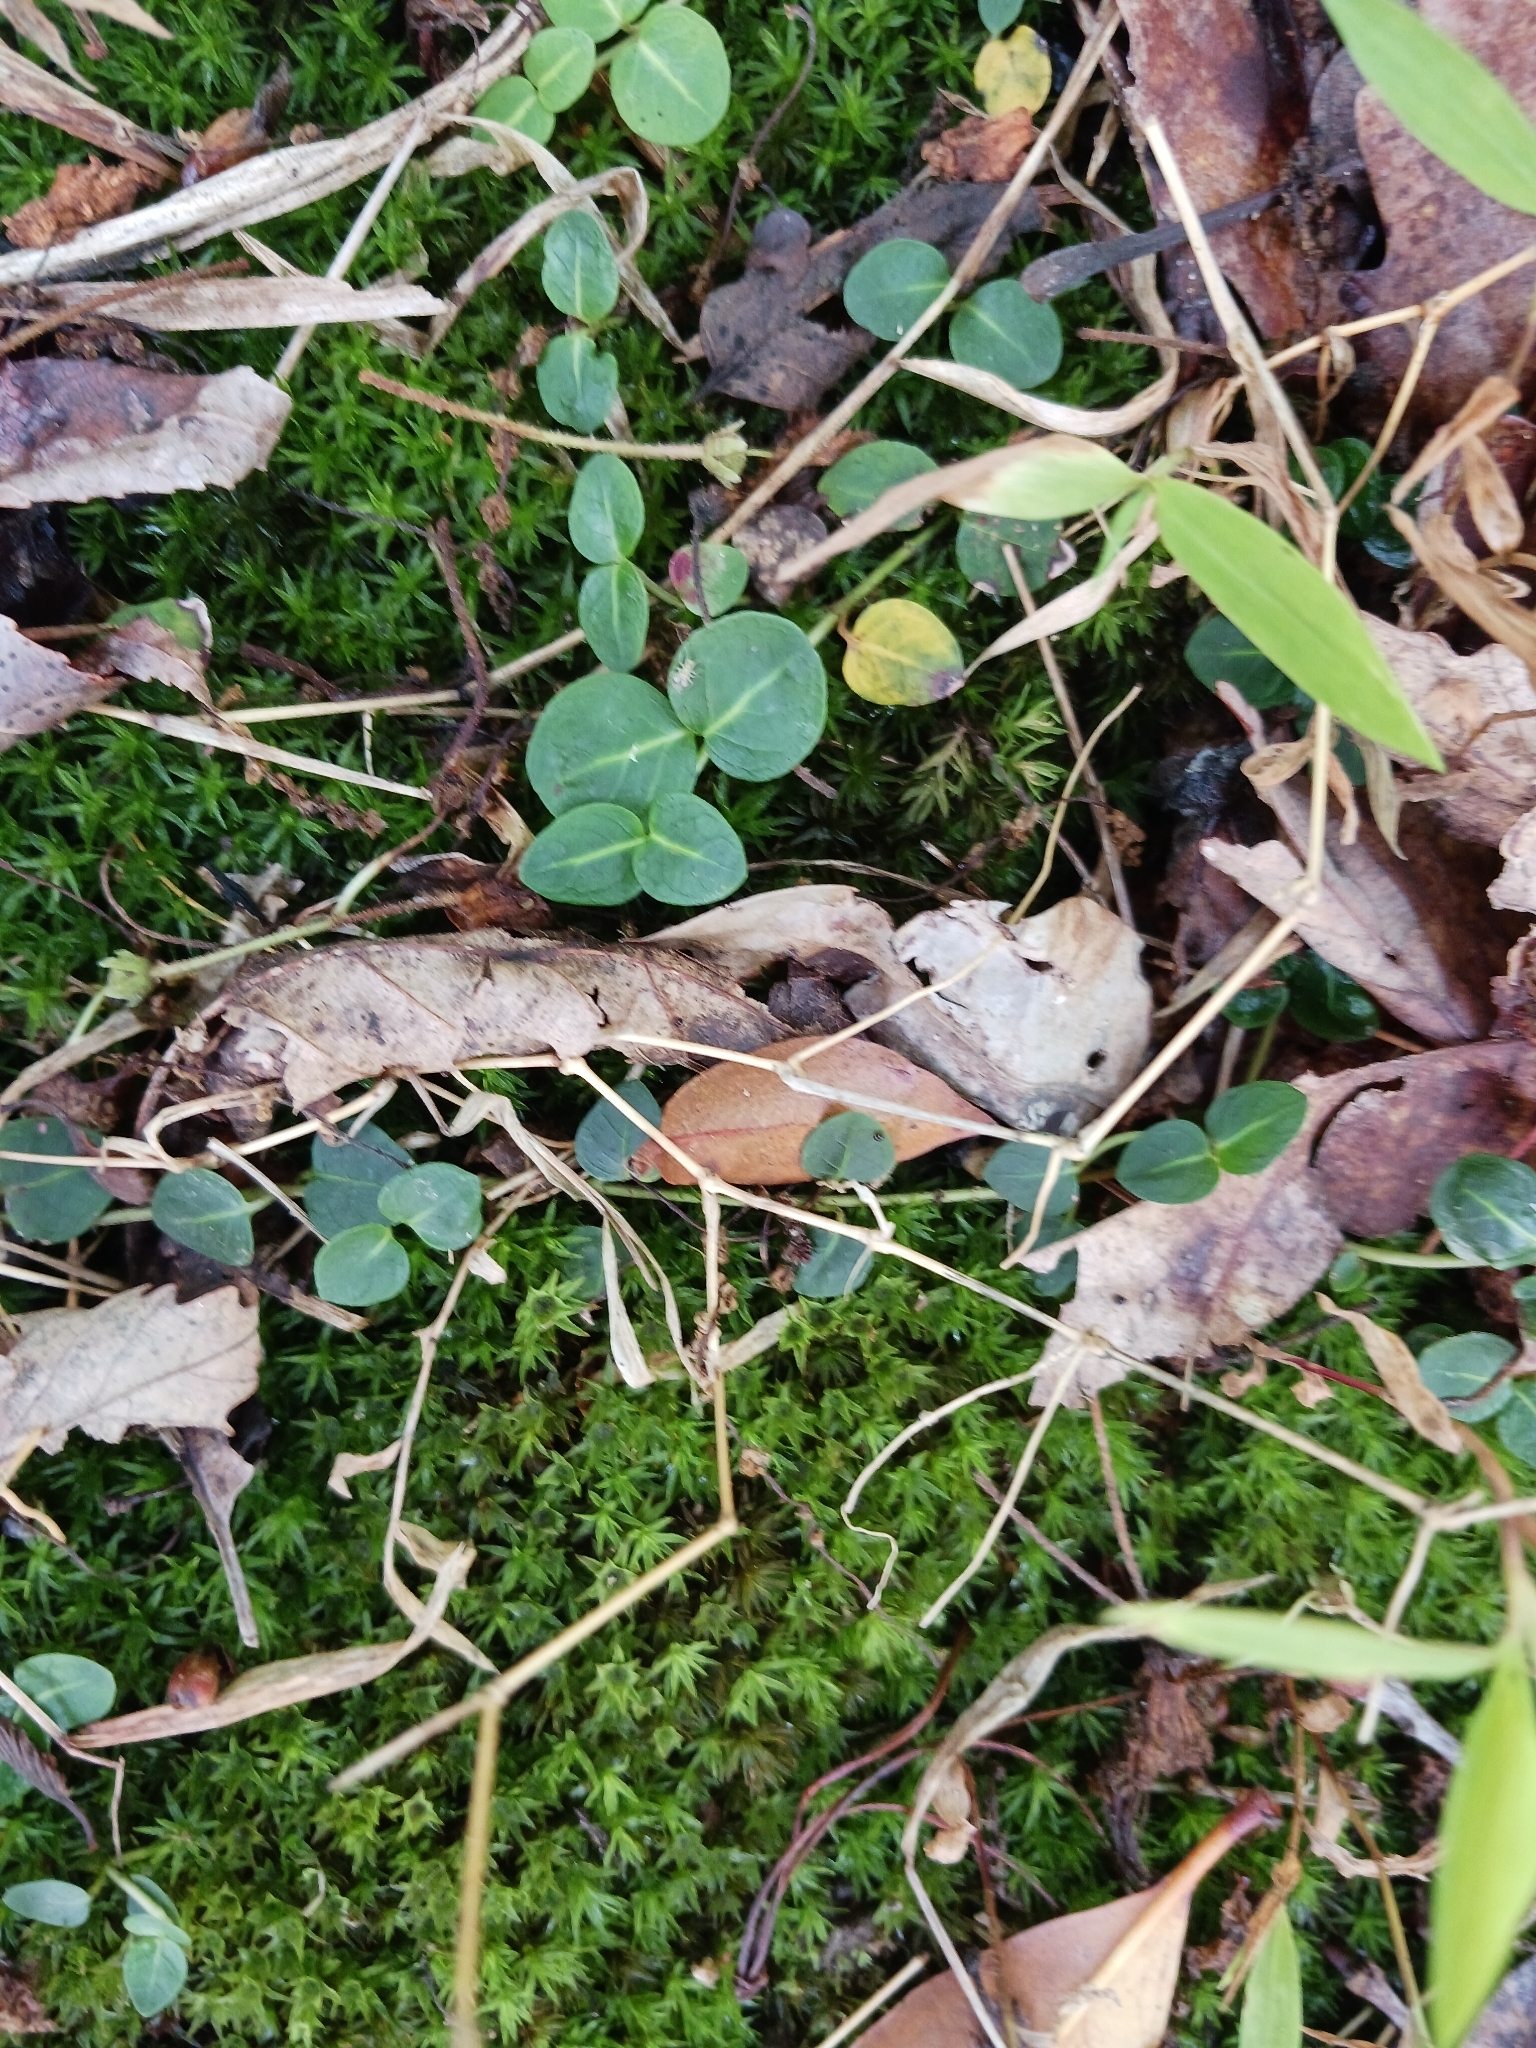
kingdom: Plantae
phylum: Tracheophyta
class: Magnoliopsida
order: Gentianales
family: Rubiaceae
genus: Mitchella
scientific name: Mitchella repens
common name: Partridge-berry
